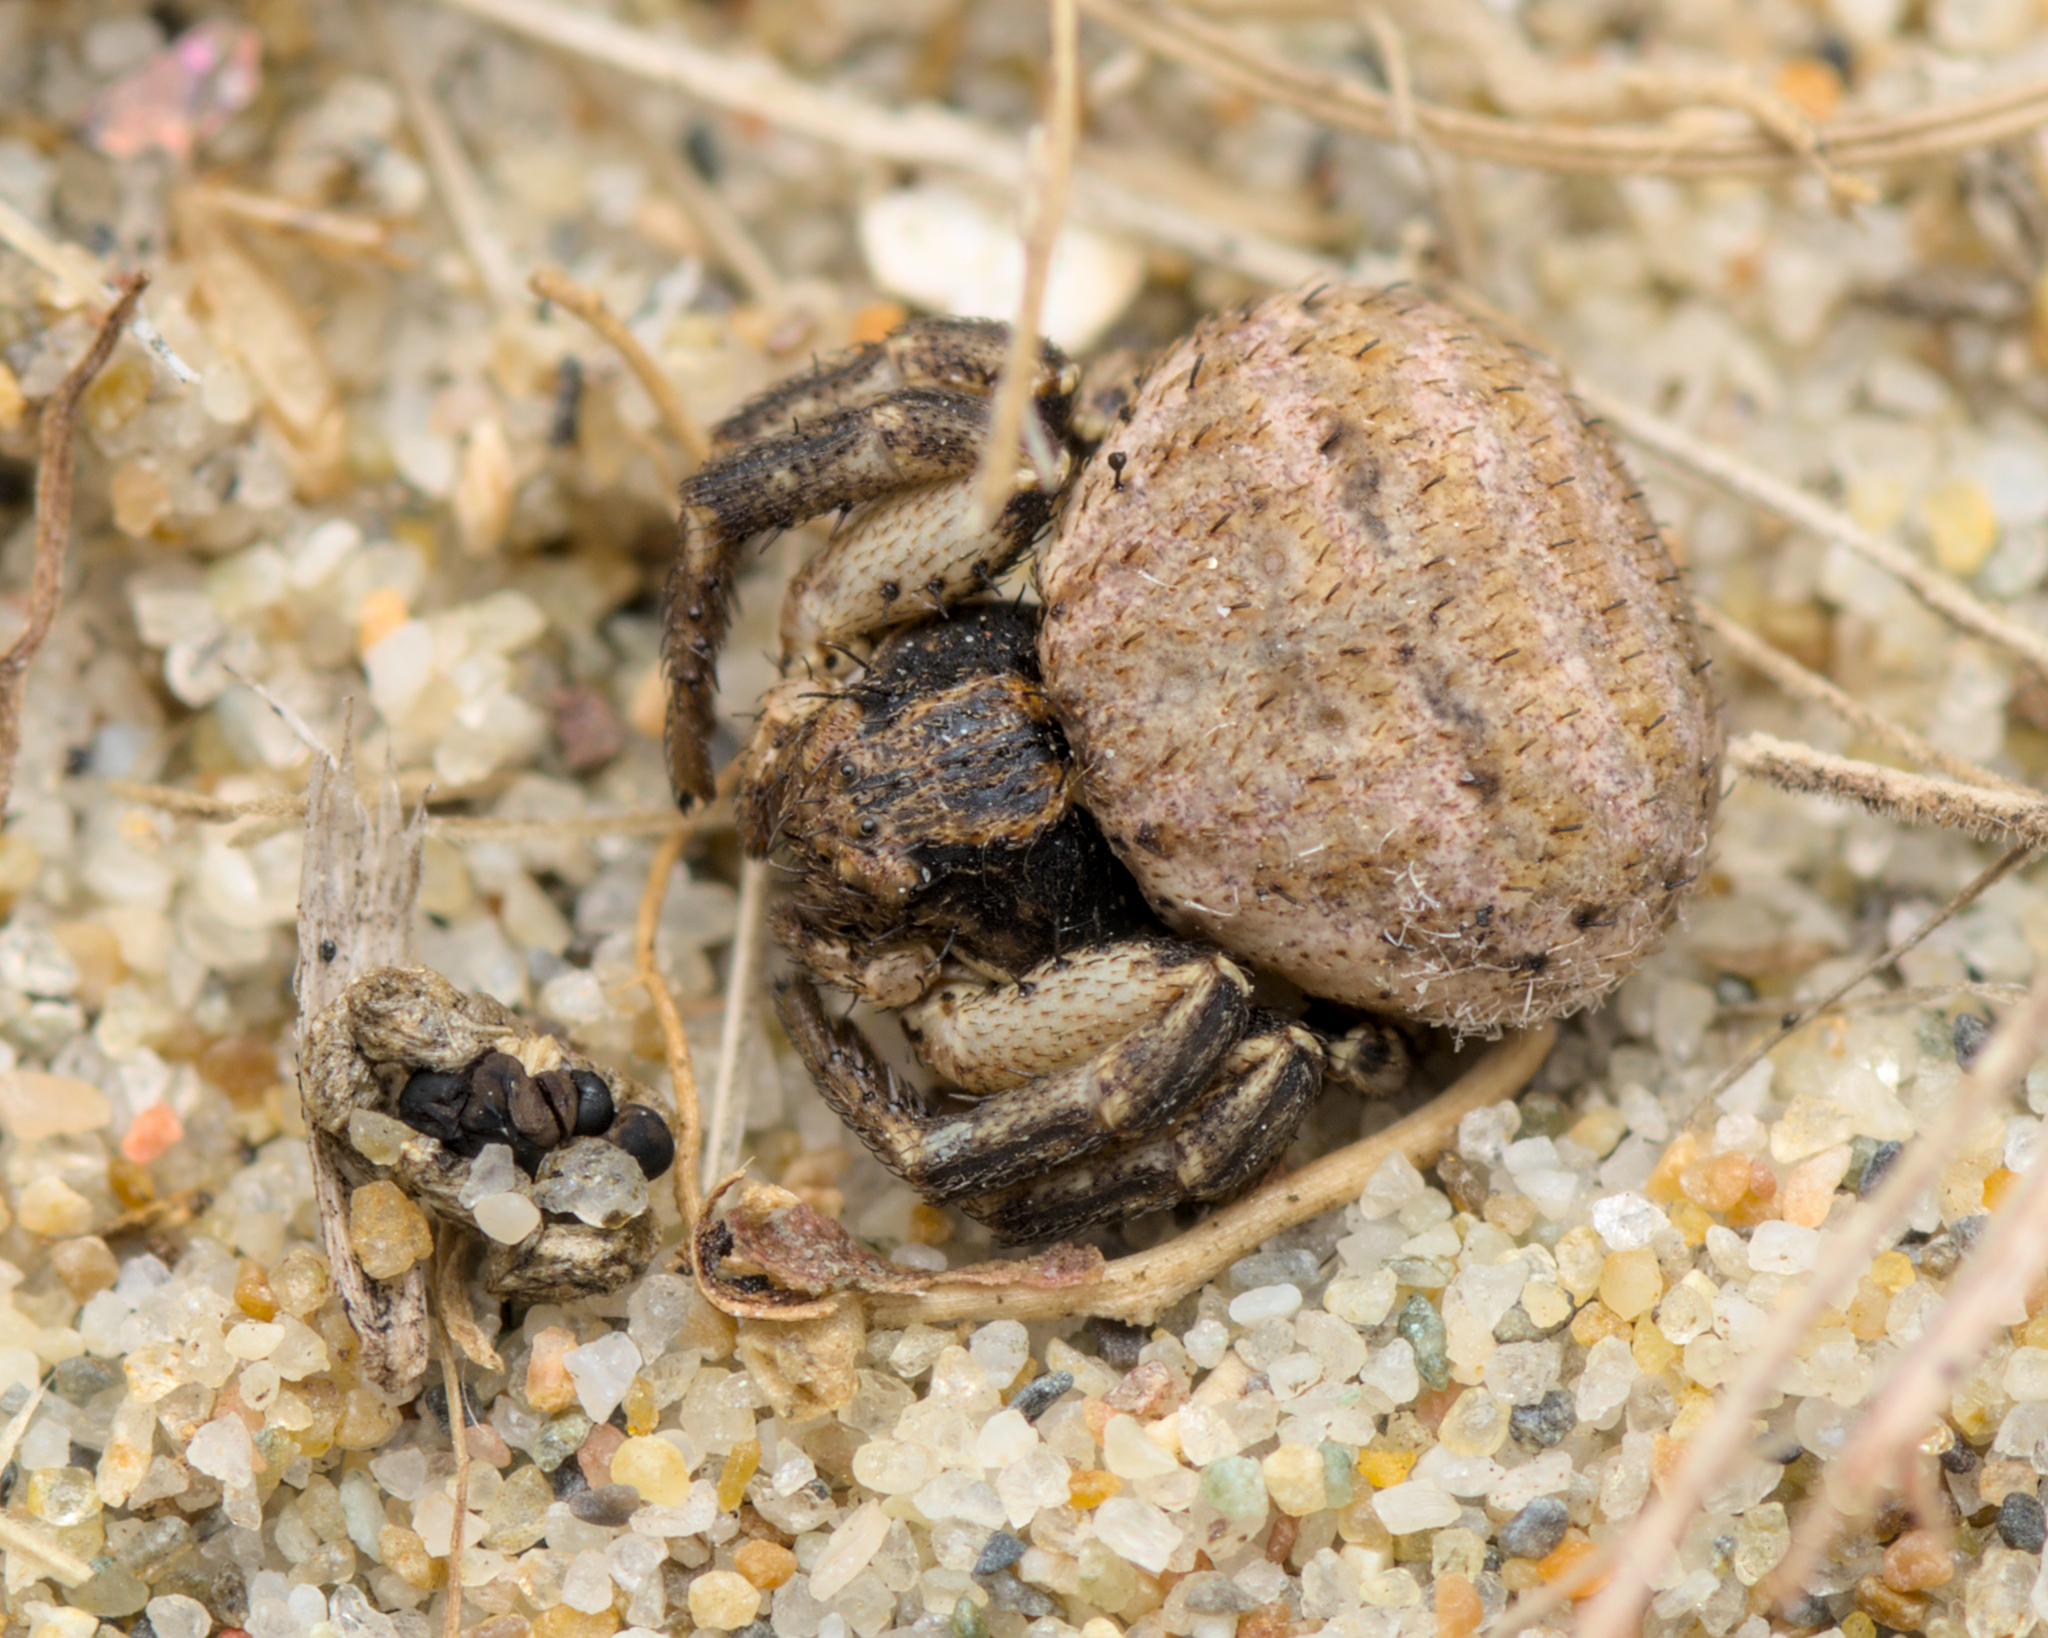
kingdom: Animalia
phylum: Arthropoda
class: Arachnida
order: Araneae
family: Thomisidae
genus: Bassaniodes
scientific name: Bassaniodes bliteus
